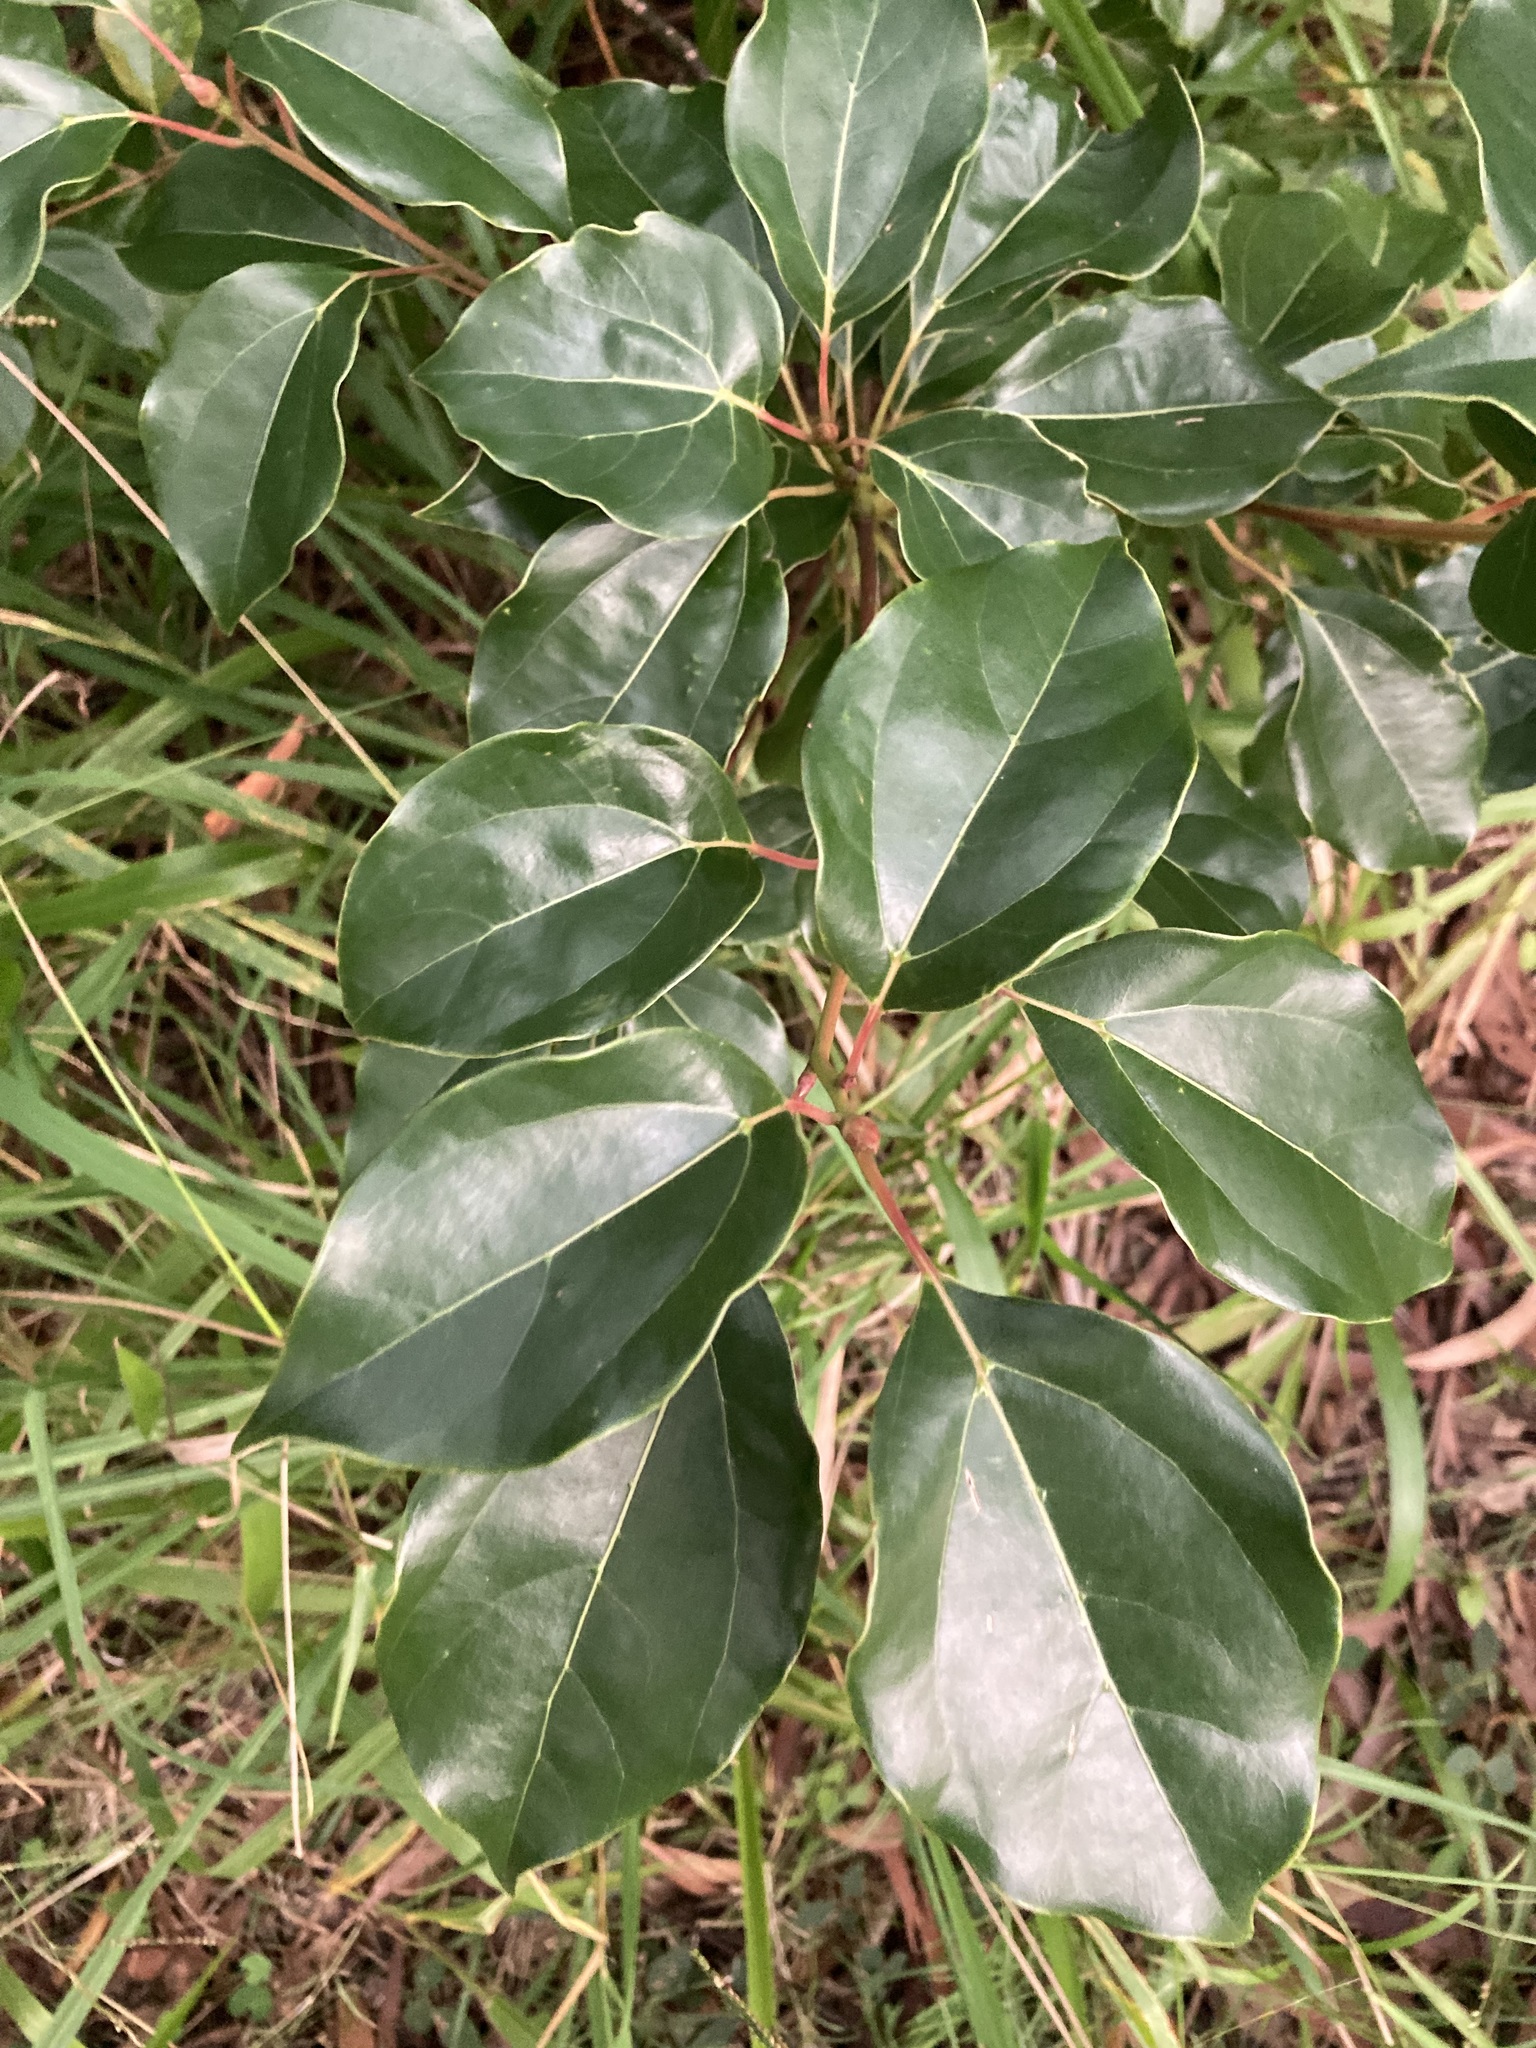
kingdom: Plantae
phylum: Tracheophyta
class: Magnoliopsida
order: Laurales
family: Lauraceae
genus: Cinnamomum
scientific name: Cinnamomum camphora
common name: Camphortree
